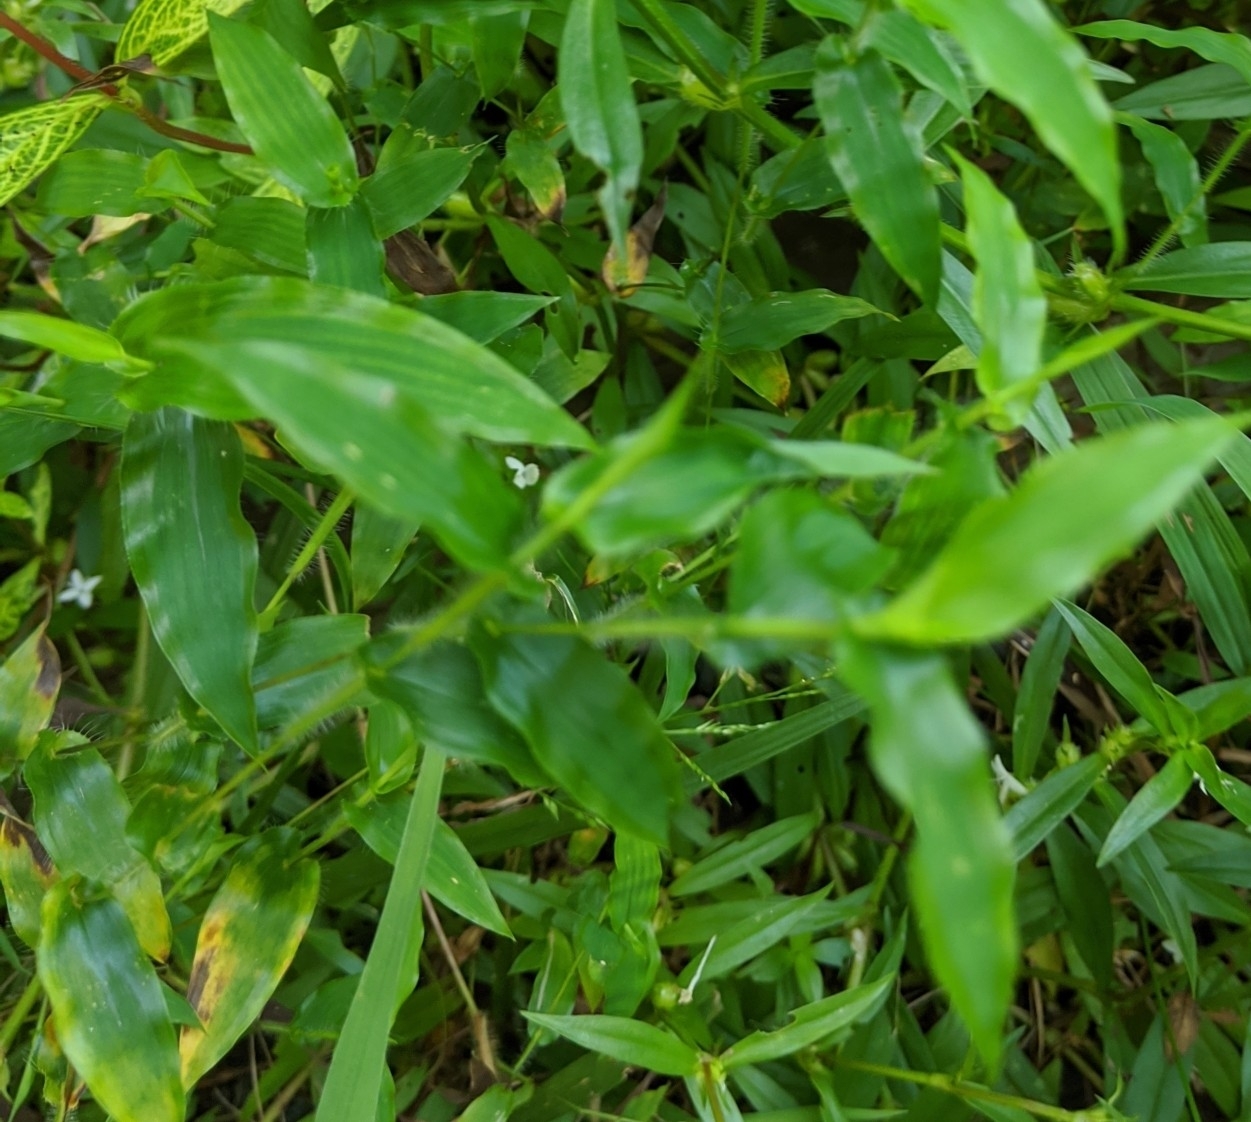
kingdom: Plantae
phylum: Tracheophyta
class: Liliopsida
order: Poales
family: Poaceae
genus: Arthraxon
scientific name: Arthraxon hispidus
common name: Small carpgrass
